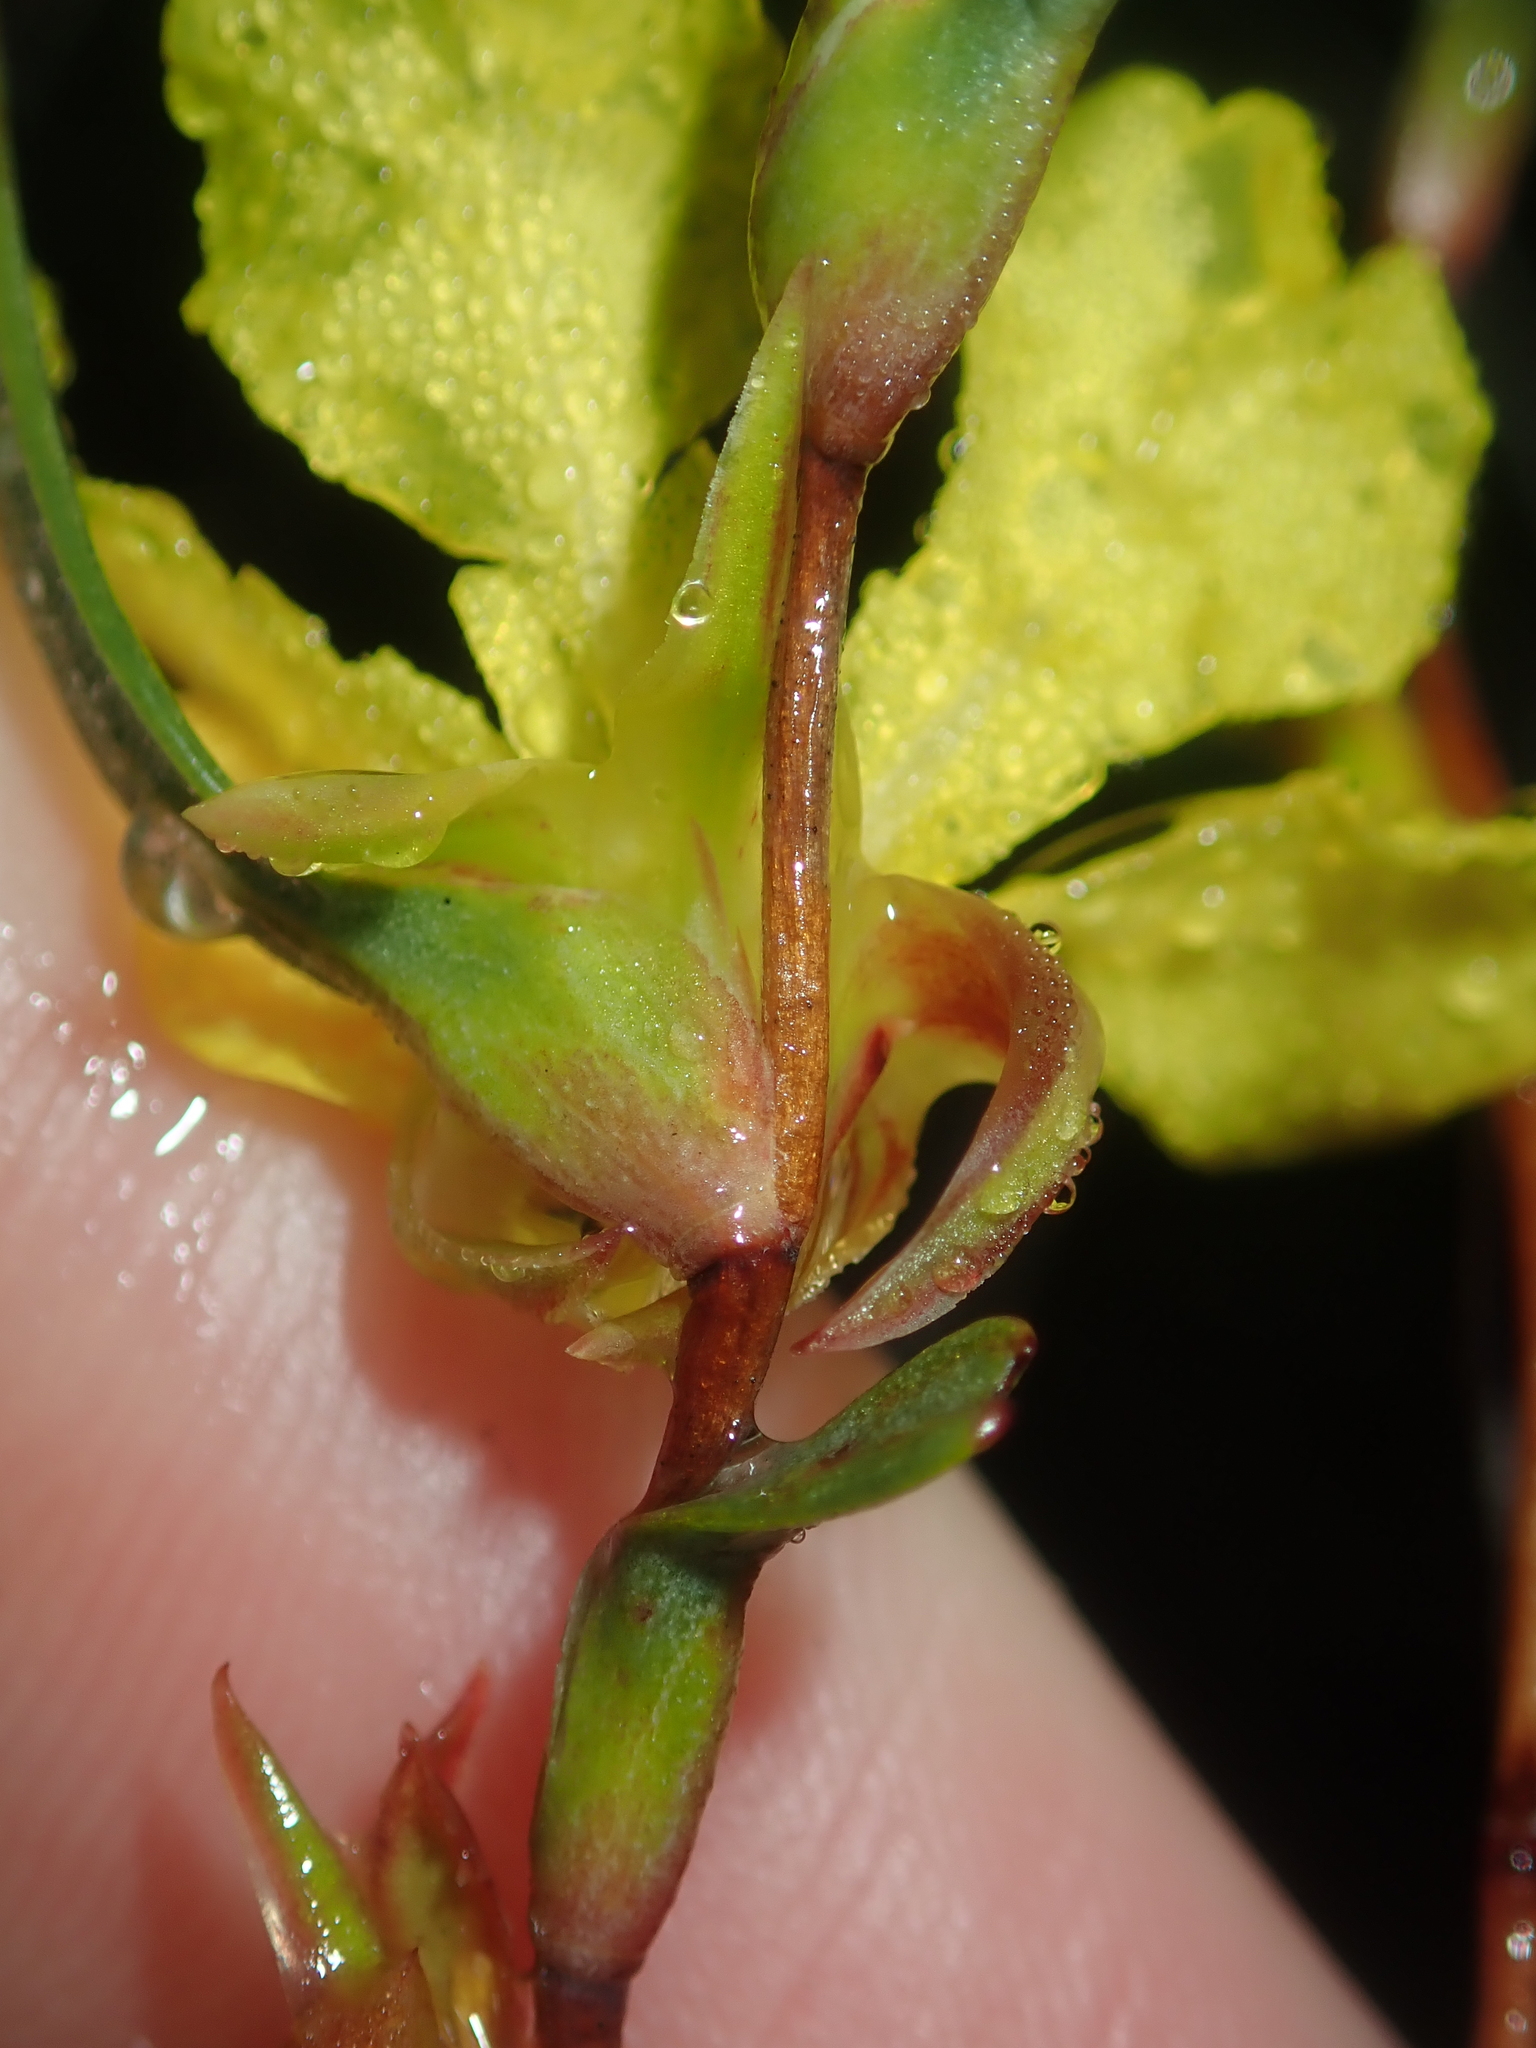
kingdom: Plantae
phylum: Tracheophyta
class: Magnoliopsida
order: Dilleniales
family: Dilleniaceae
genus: Hibbertia
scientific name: Hibbertia subvaginata
